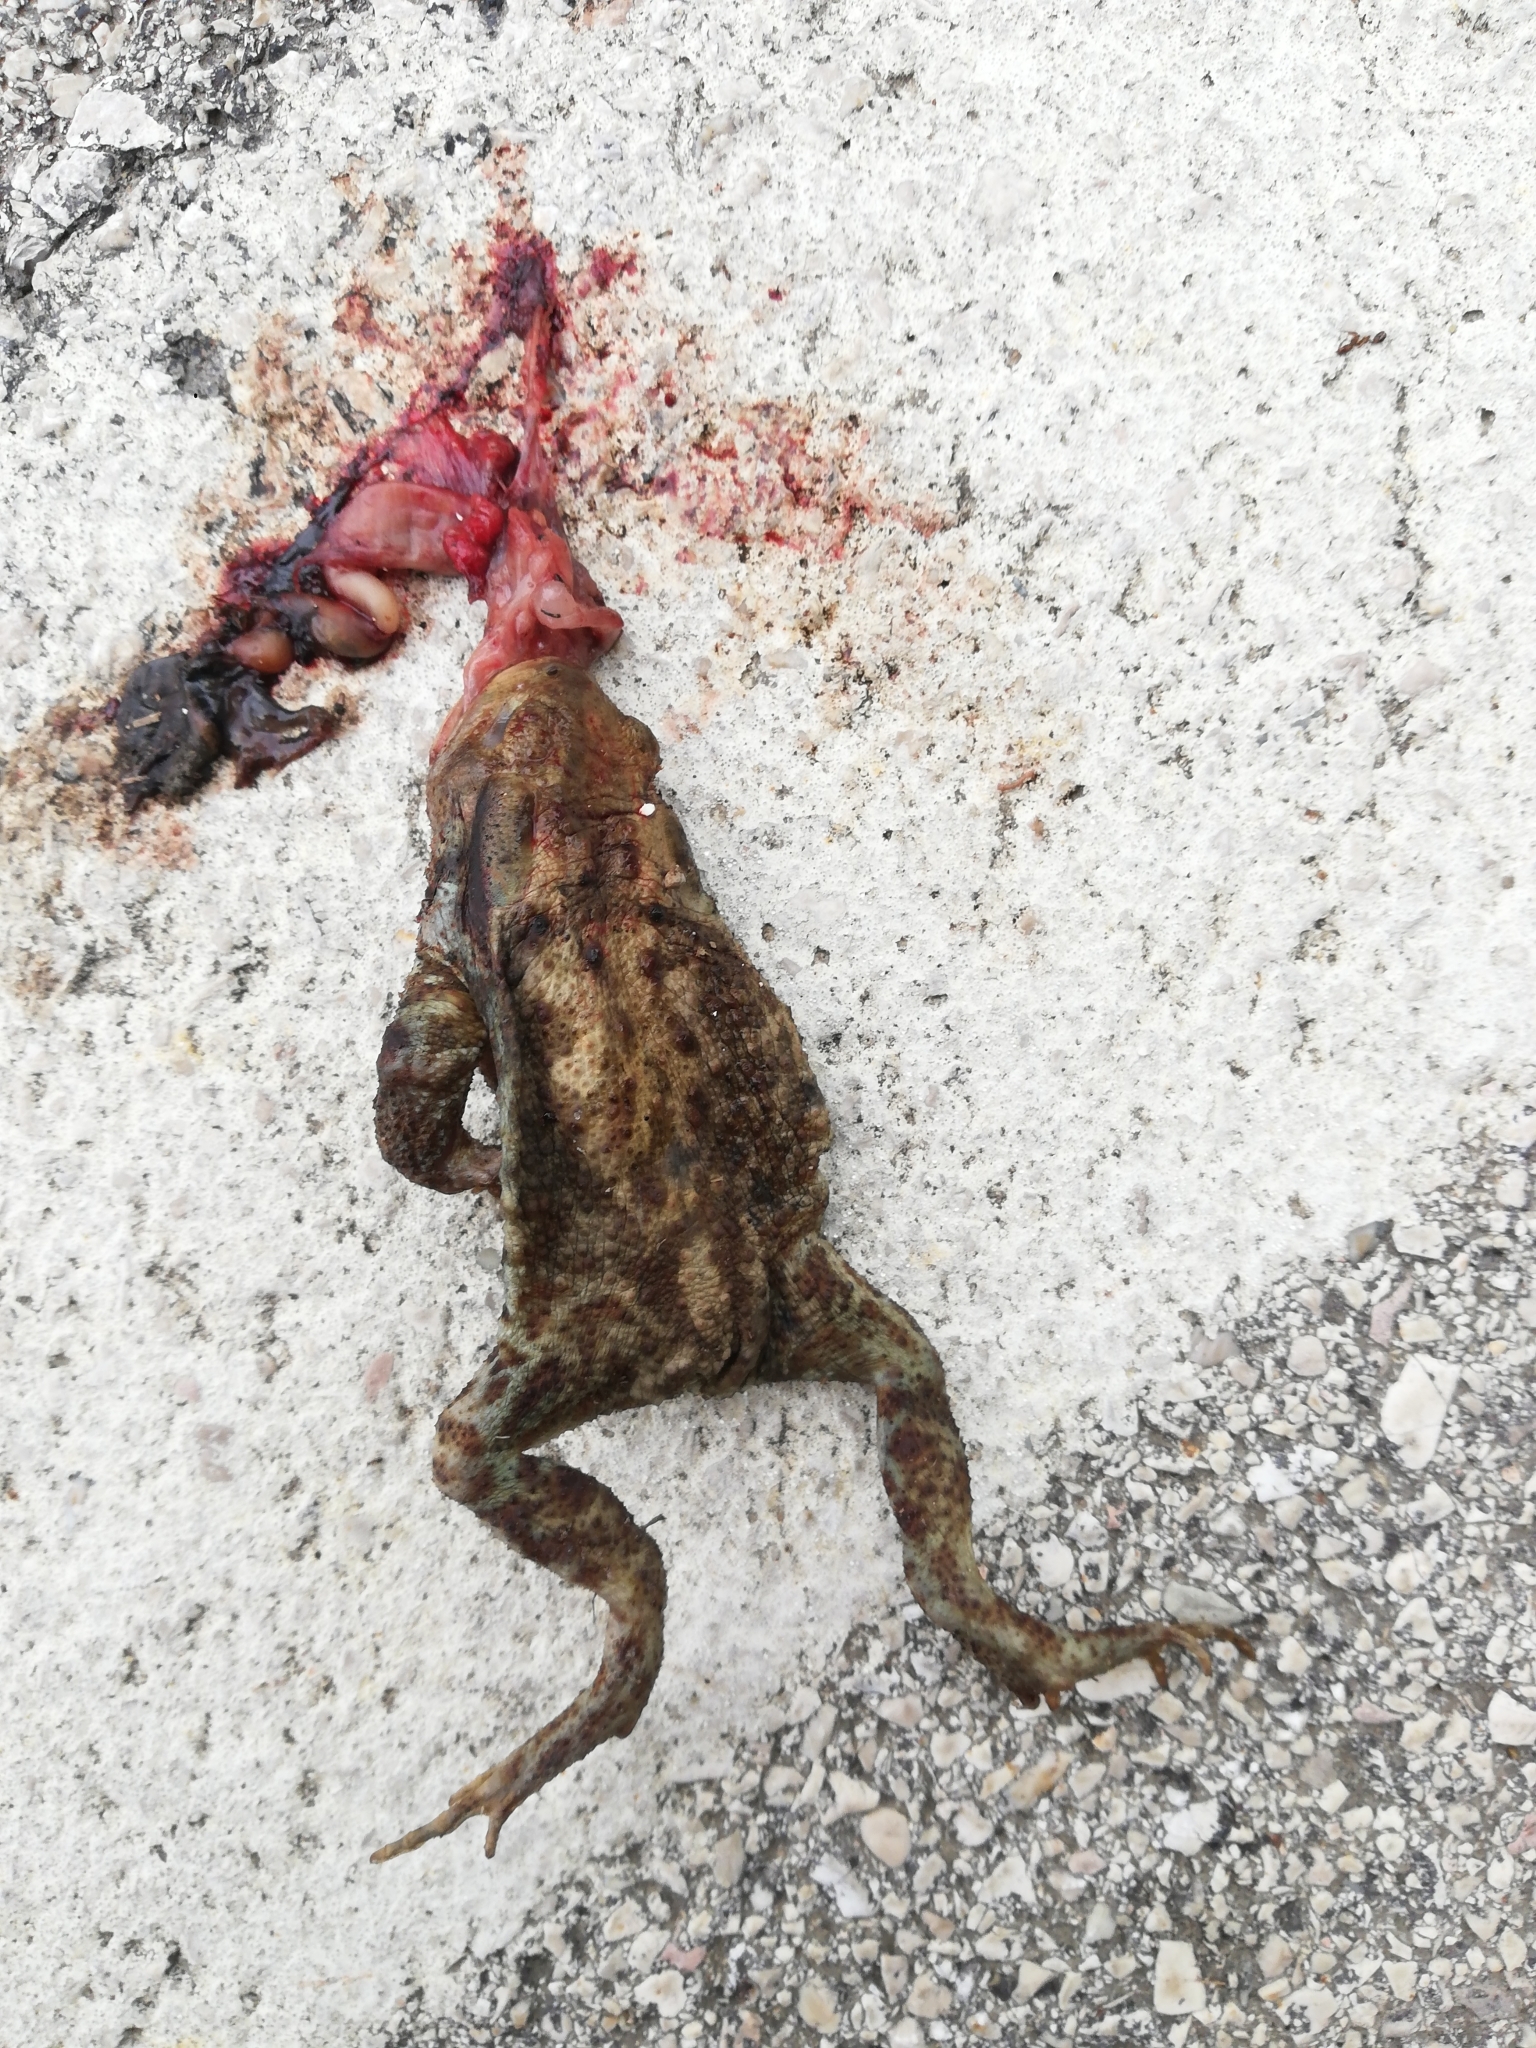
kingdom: Animalia
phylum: Chordata
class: Amphibia
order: Anura
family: Bufonidae
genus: Bufo
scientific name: Bufo bufo
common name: Common toad
